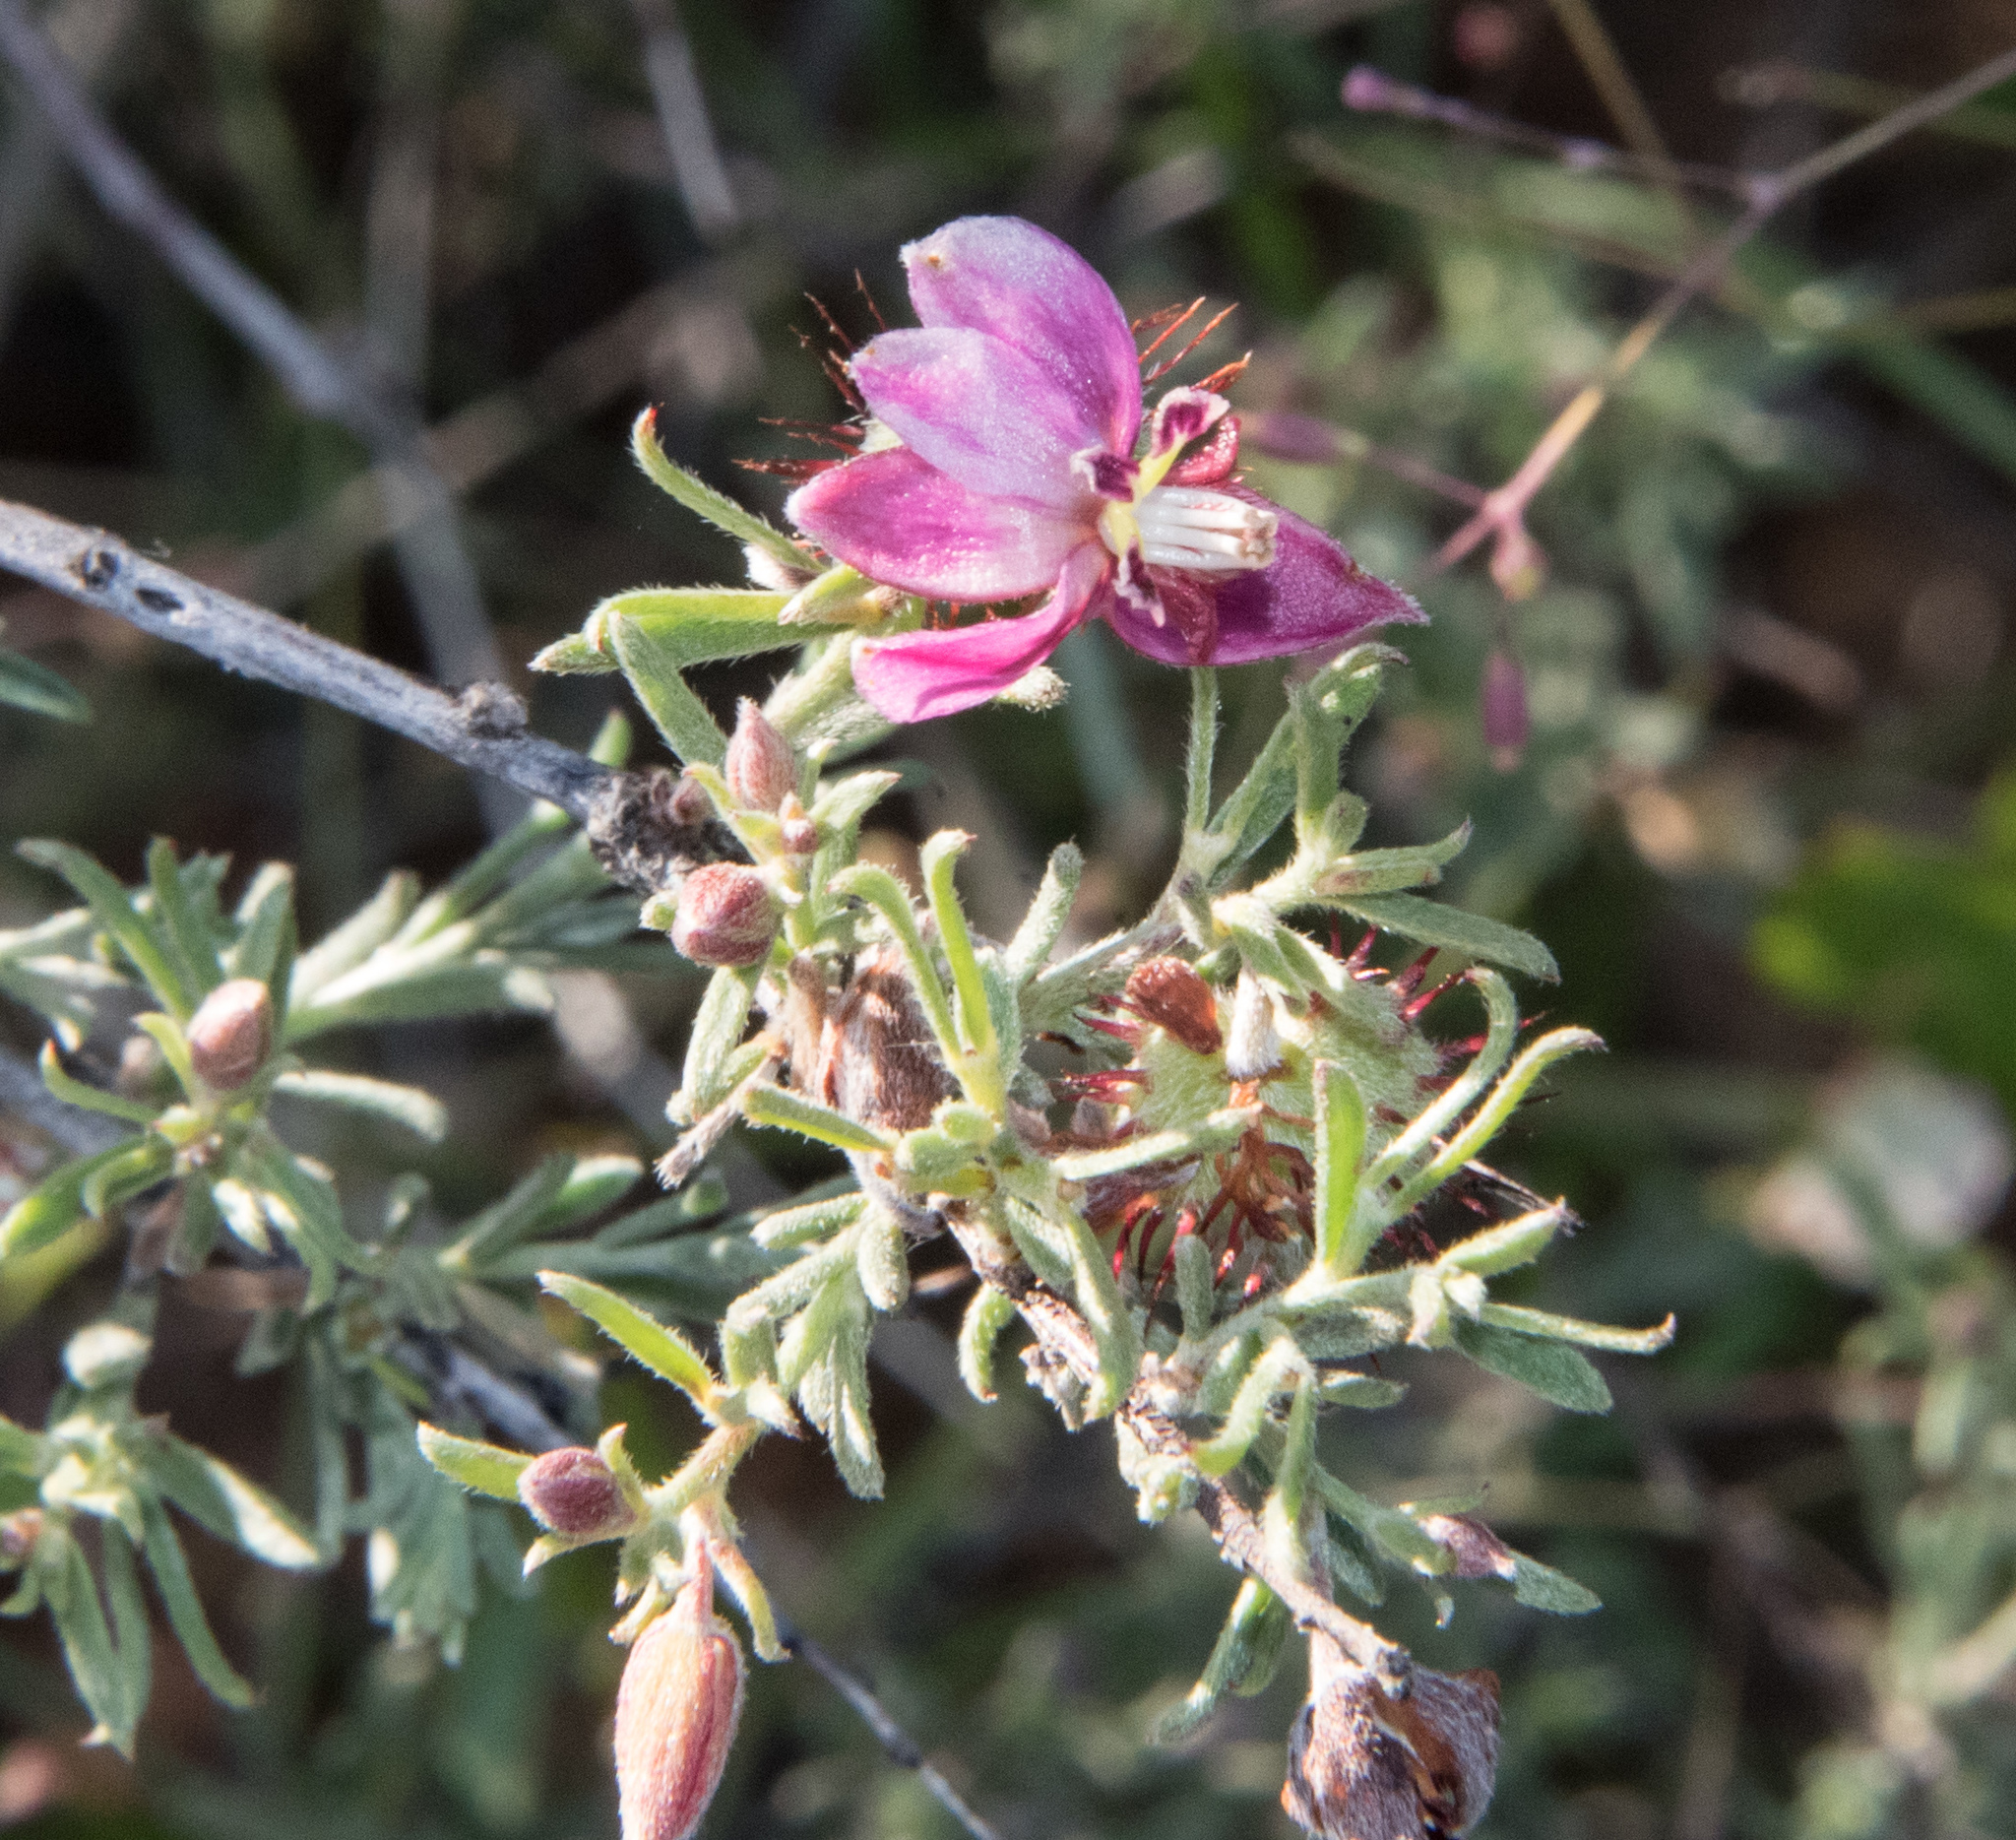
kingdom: Plantae
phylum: Tracheophyta
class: Magnoliopsida
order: Zygophyllales
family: Krameriaceae
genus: Krameria
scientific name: Krameria erecta
